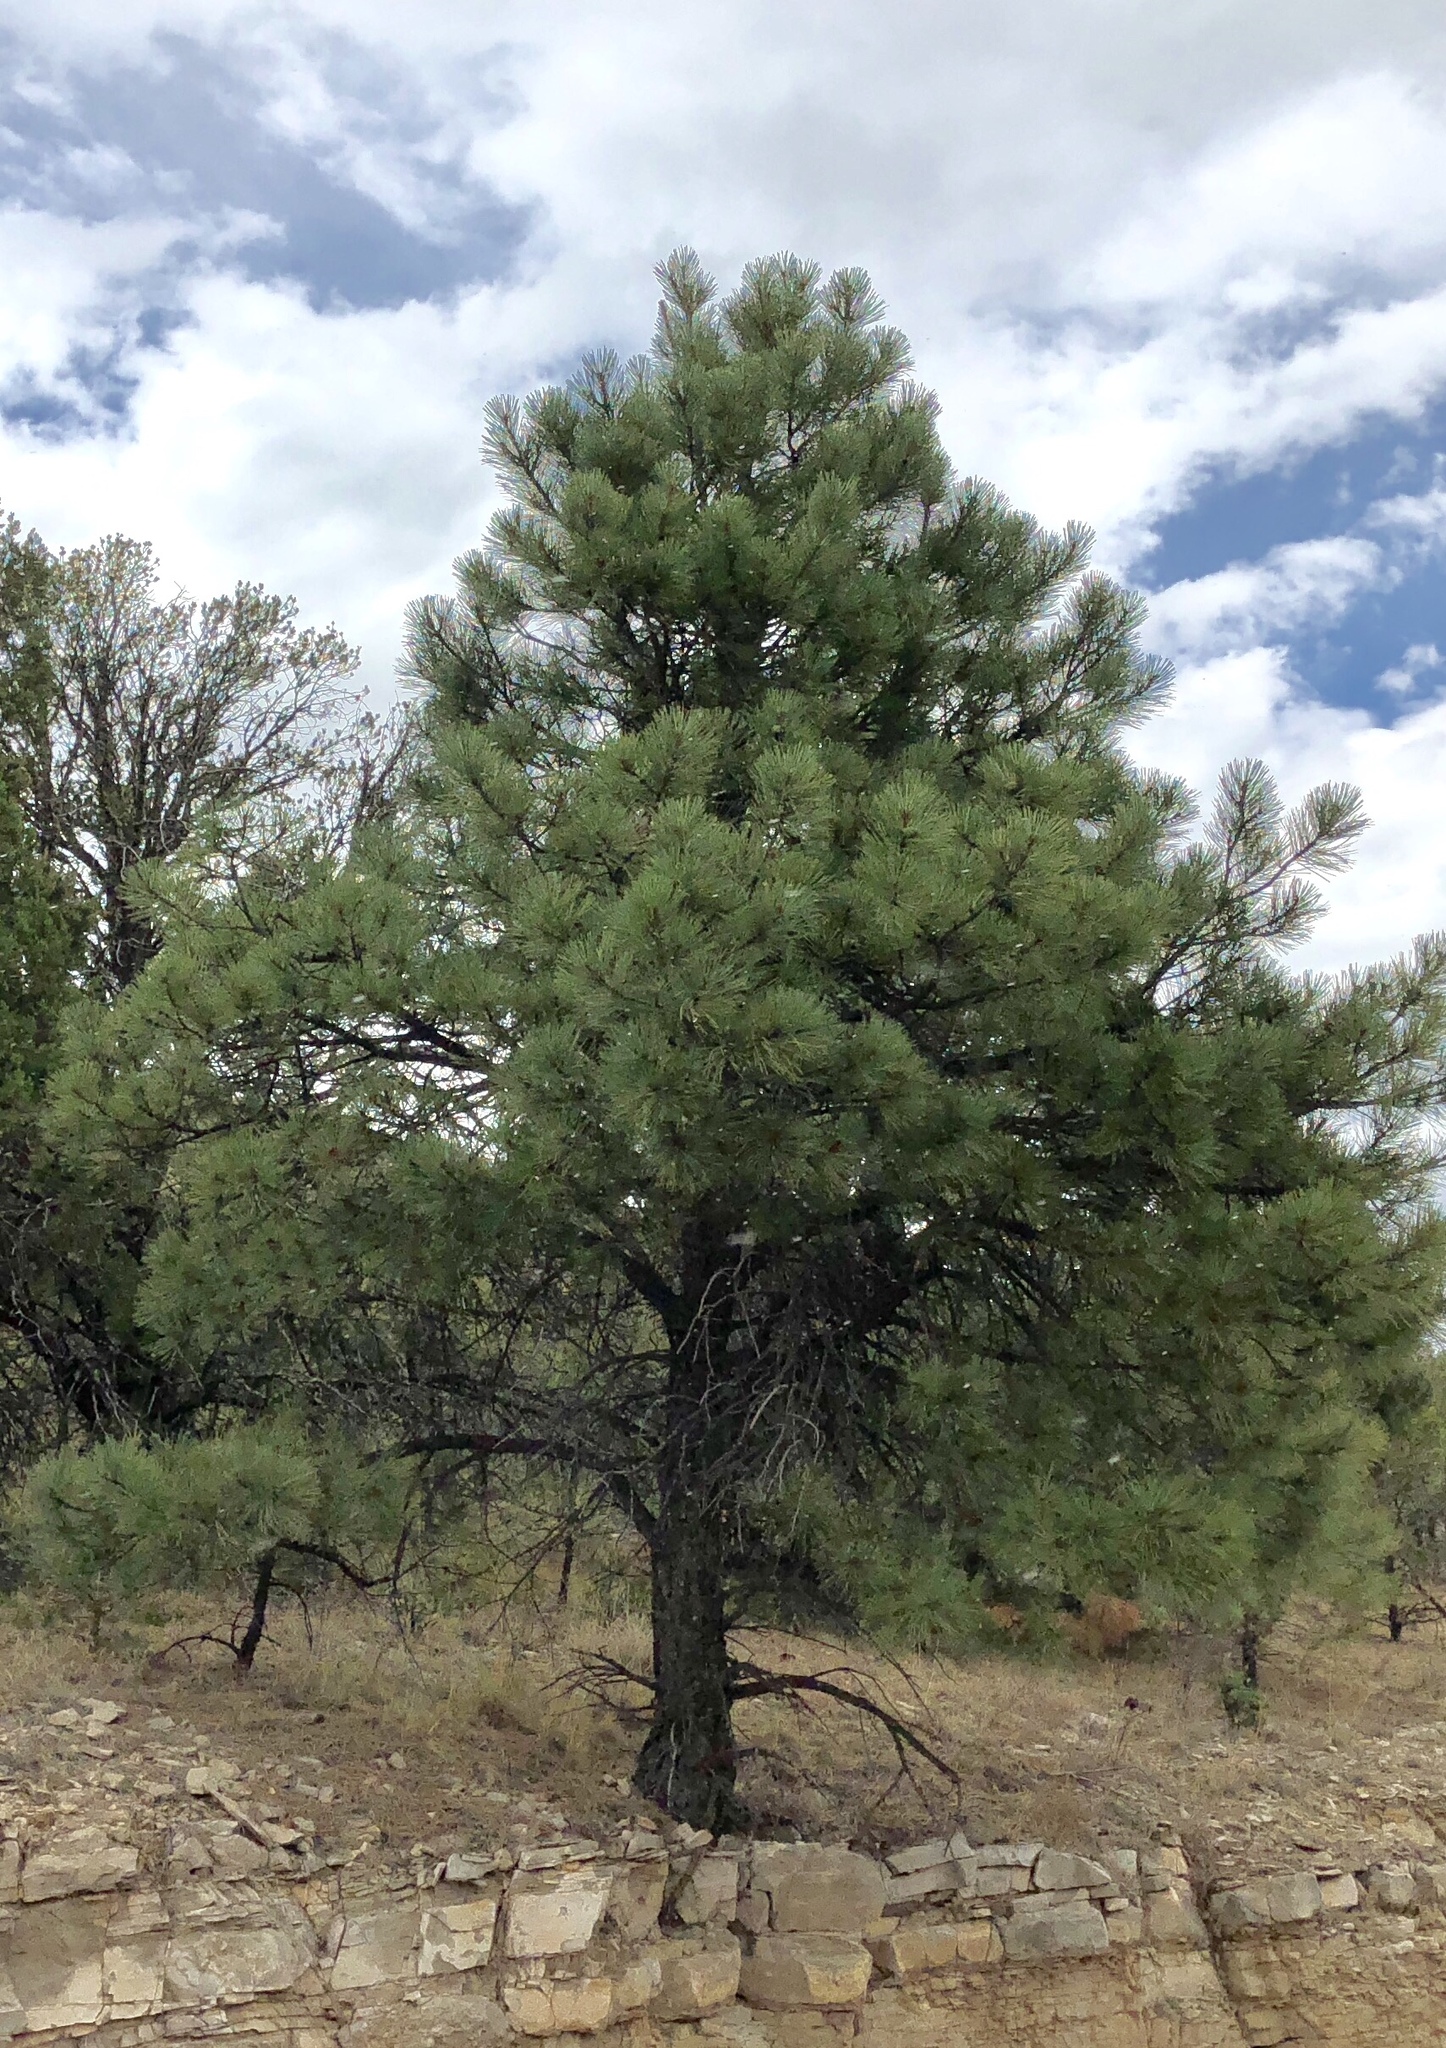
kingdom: Plantae
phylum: Tracheophyta
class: Pinopsida
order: Pinales
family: Pinaceae
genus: Pinus
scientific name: Pinus ponderosa
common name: Western yellow-pine
